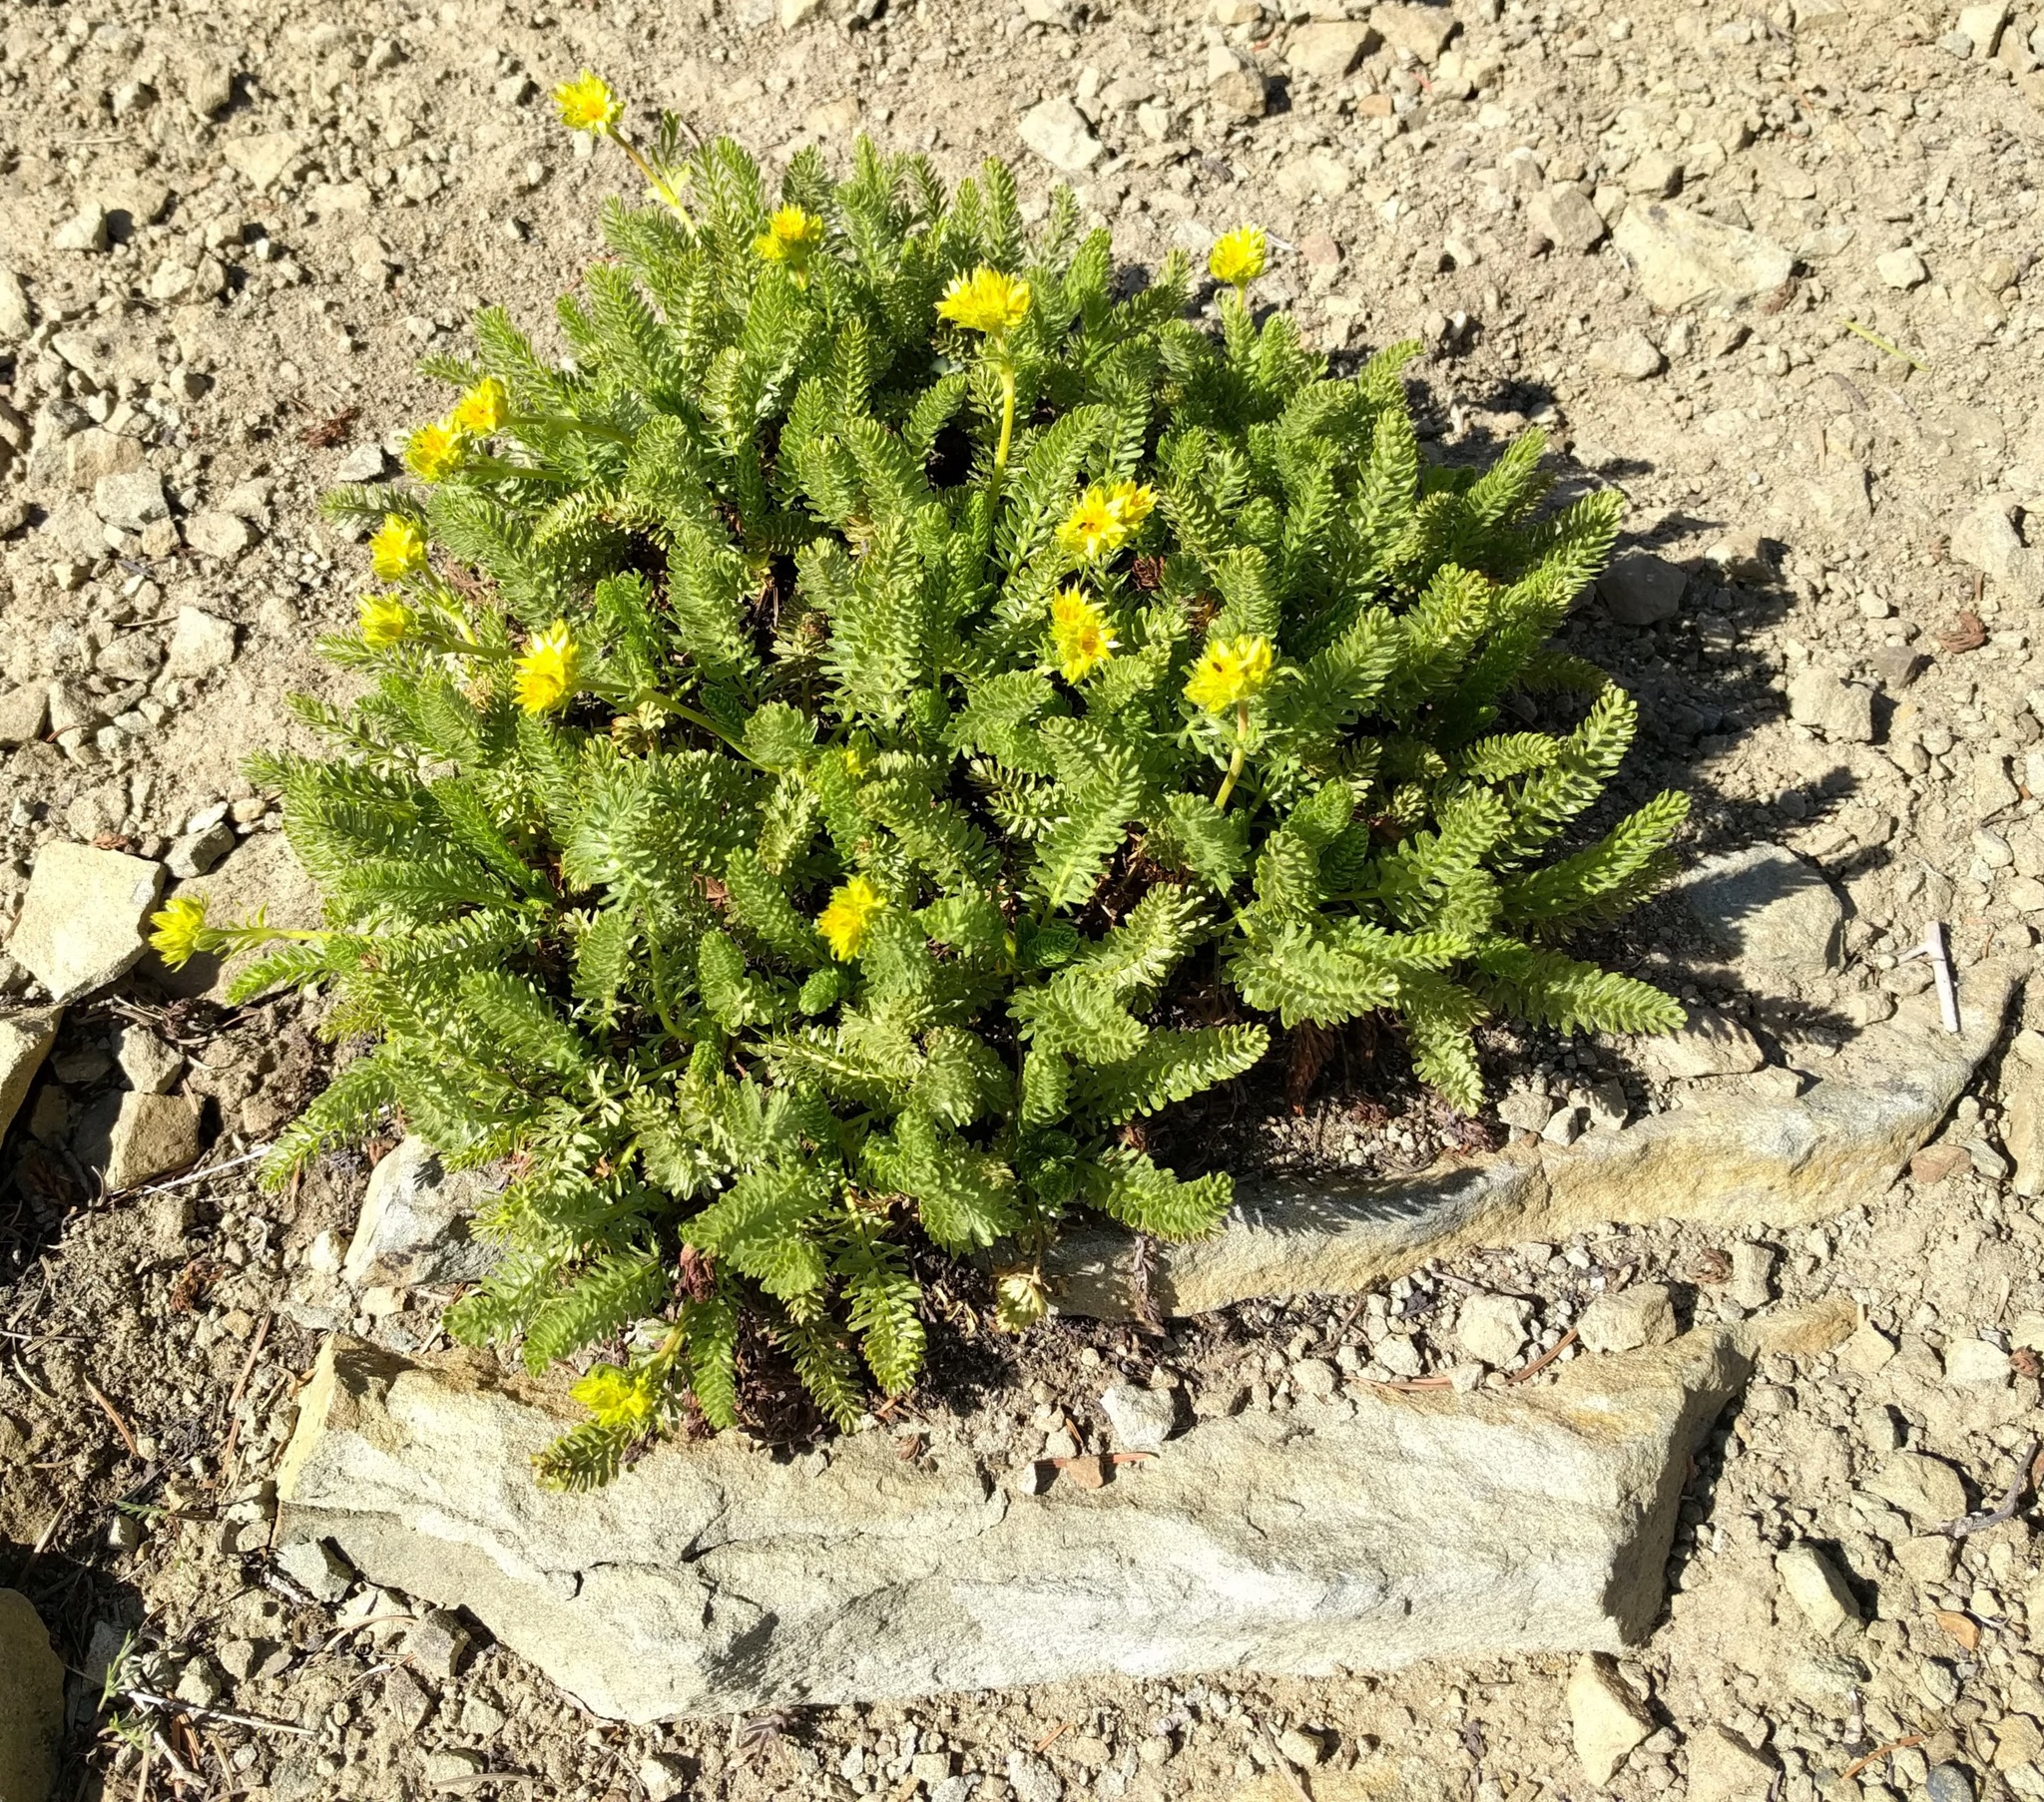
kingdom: Plantae
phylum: Tracheophyta
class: Magnoliopsida
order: Rosales
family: Rosaceae
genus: Potentilla
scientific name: Potentilla tweedyi
